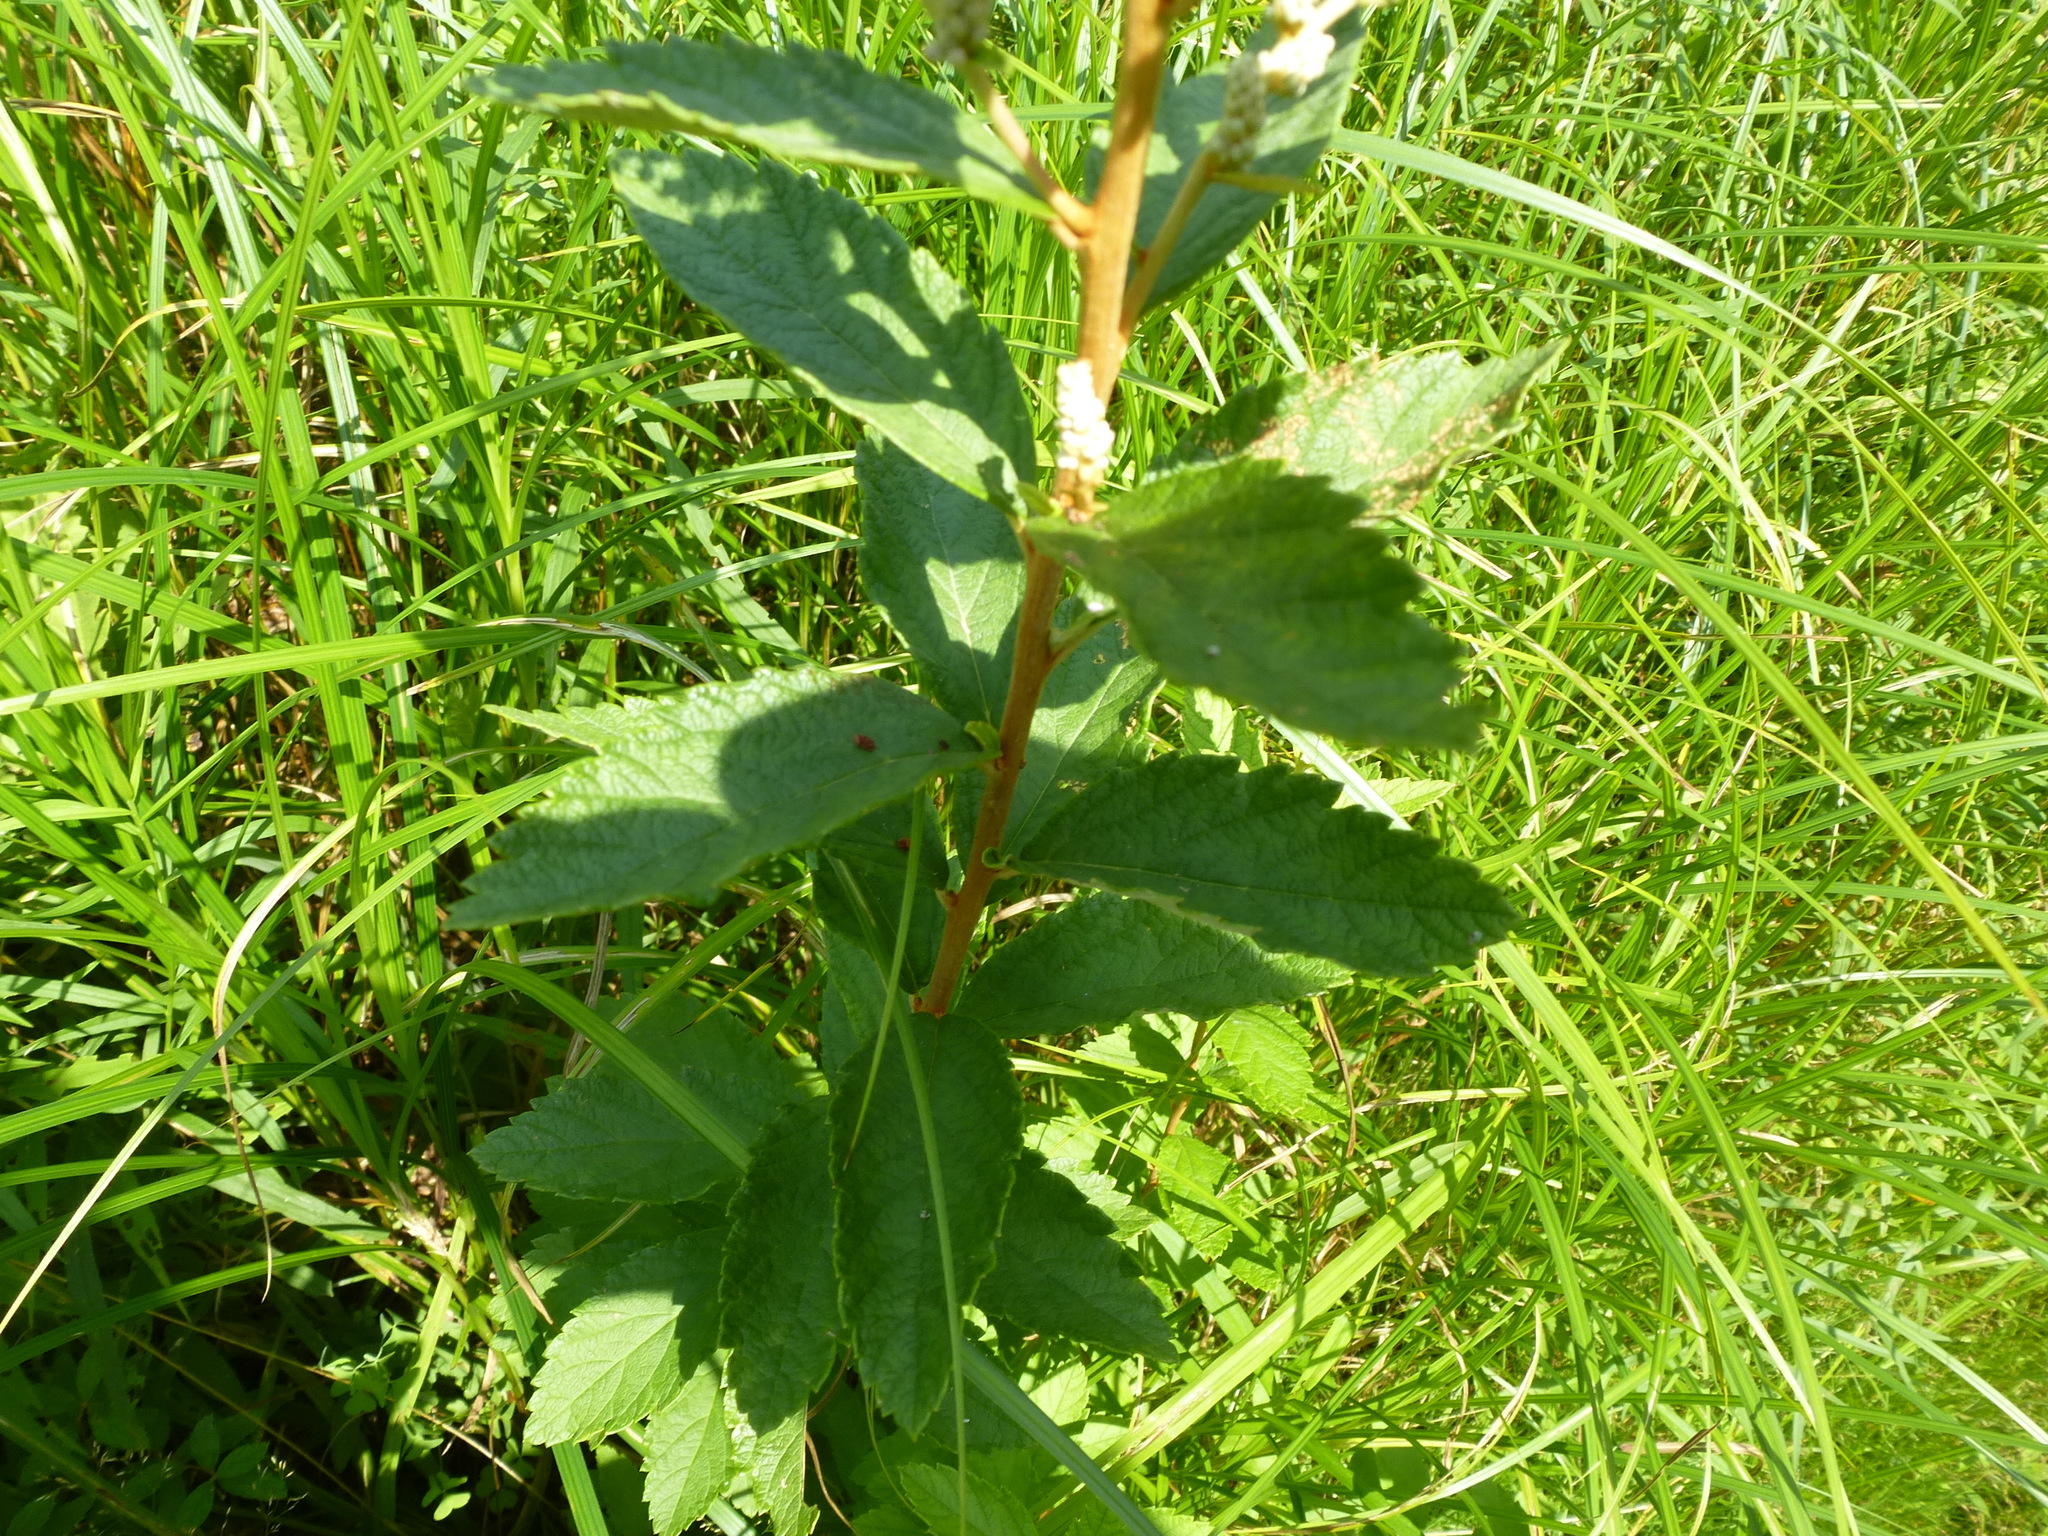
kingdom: Plantae
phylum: Tracheophyta
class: Magnoliopsida
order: Rosales
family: Rosaceae
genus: Spiraea
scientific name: Spiraea tomentosa
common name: Hardhack
